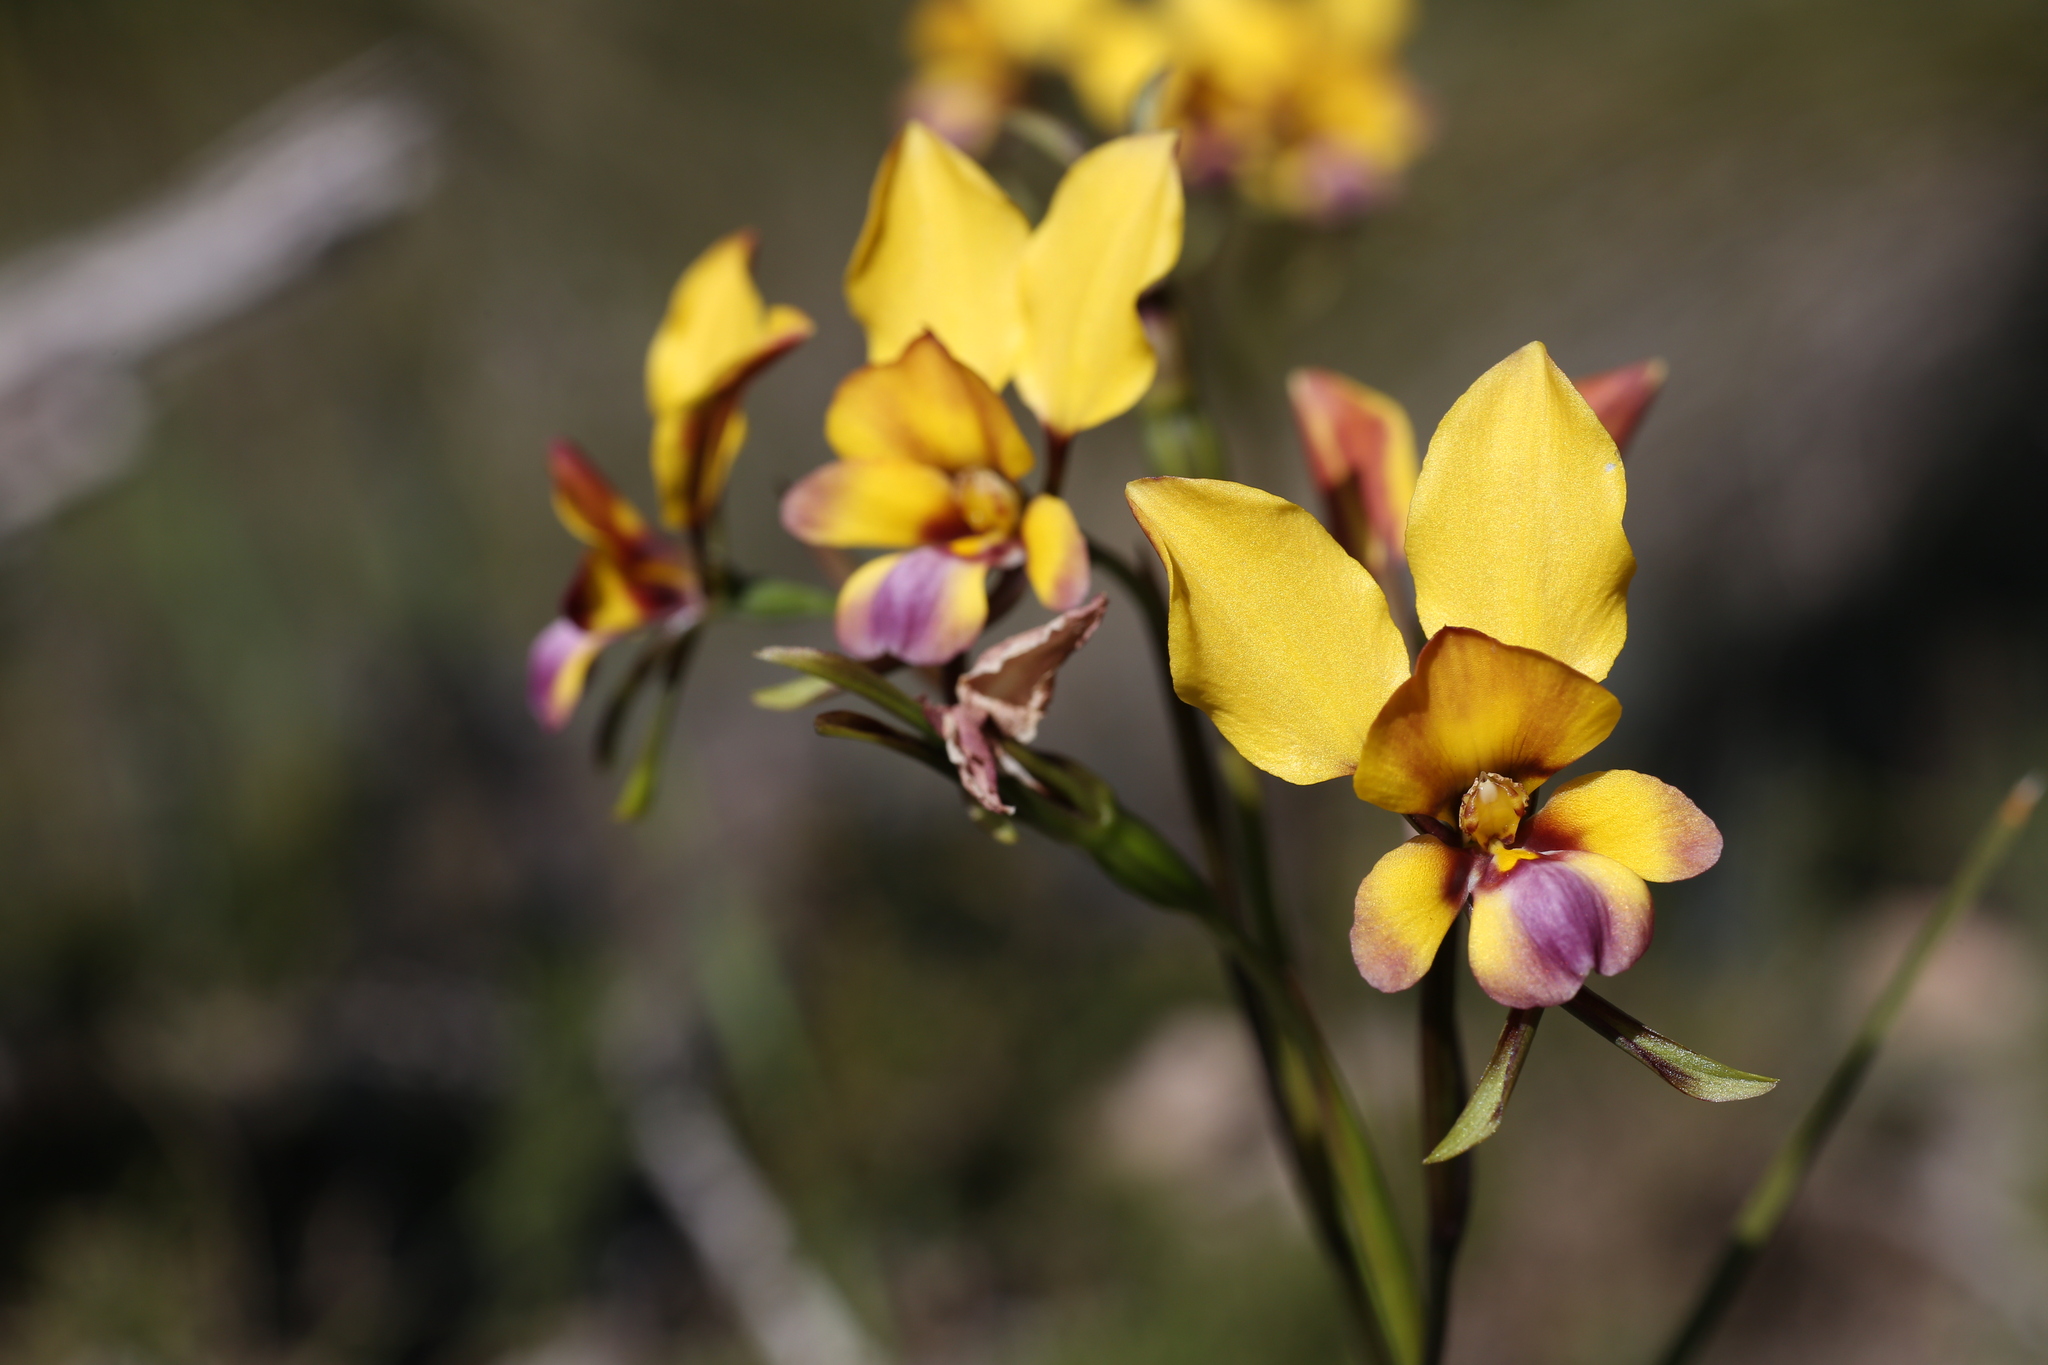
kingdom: Plantae
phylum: Tracheophyta
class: Liliopsida
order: Asparagales
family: Orchidaceae
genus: Diuris
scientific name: Diuris magnifica
